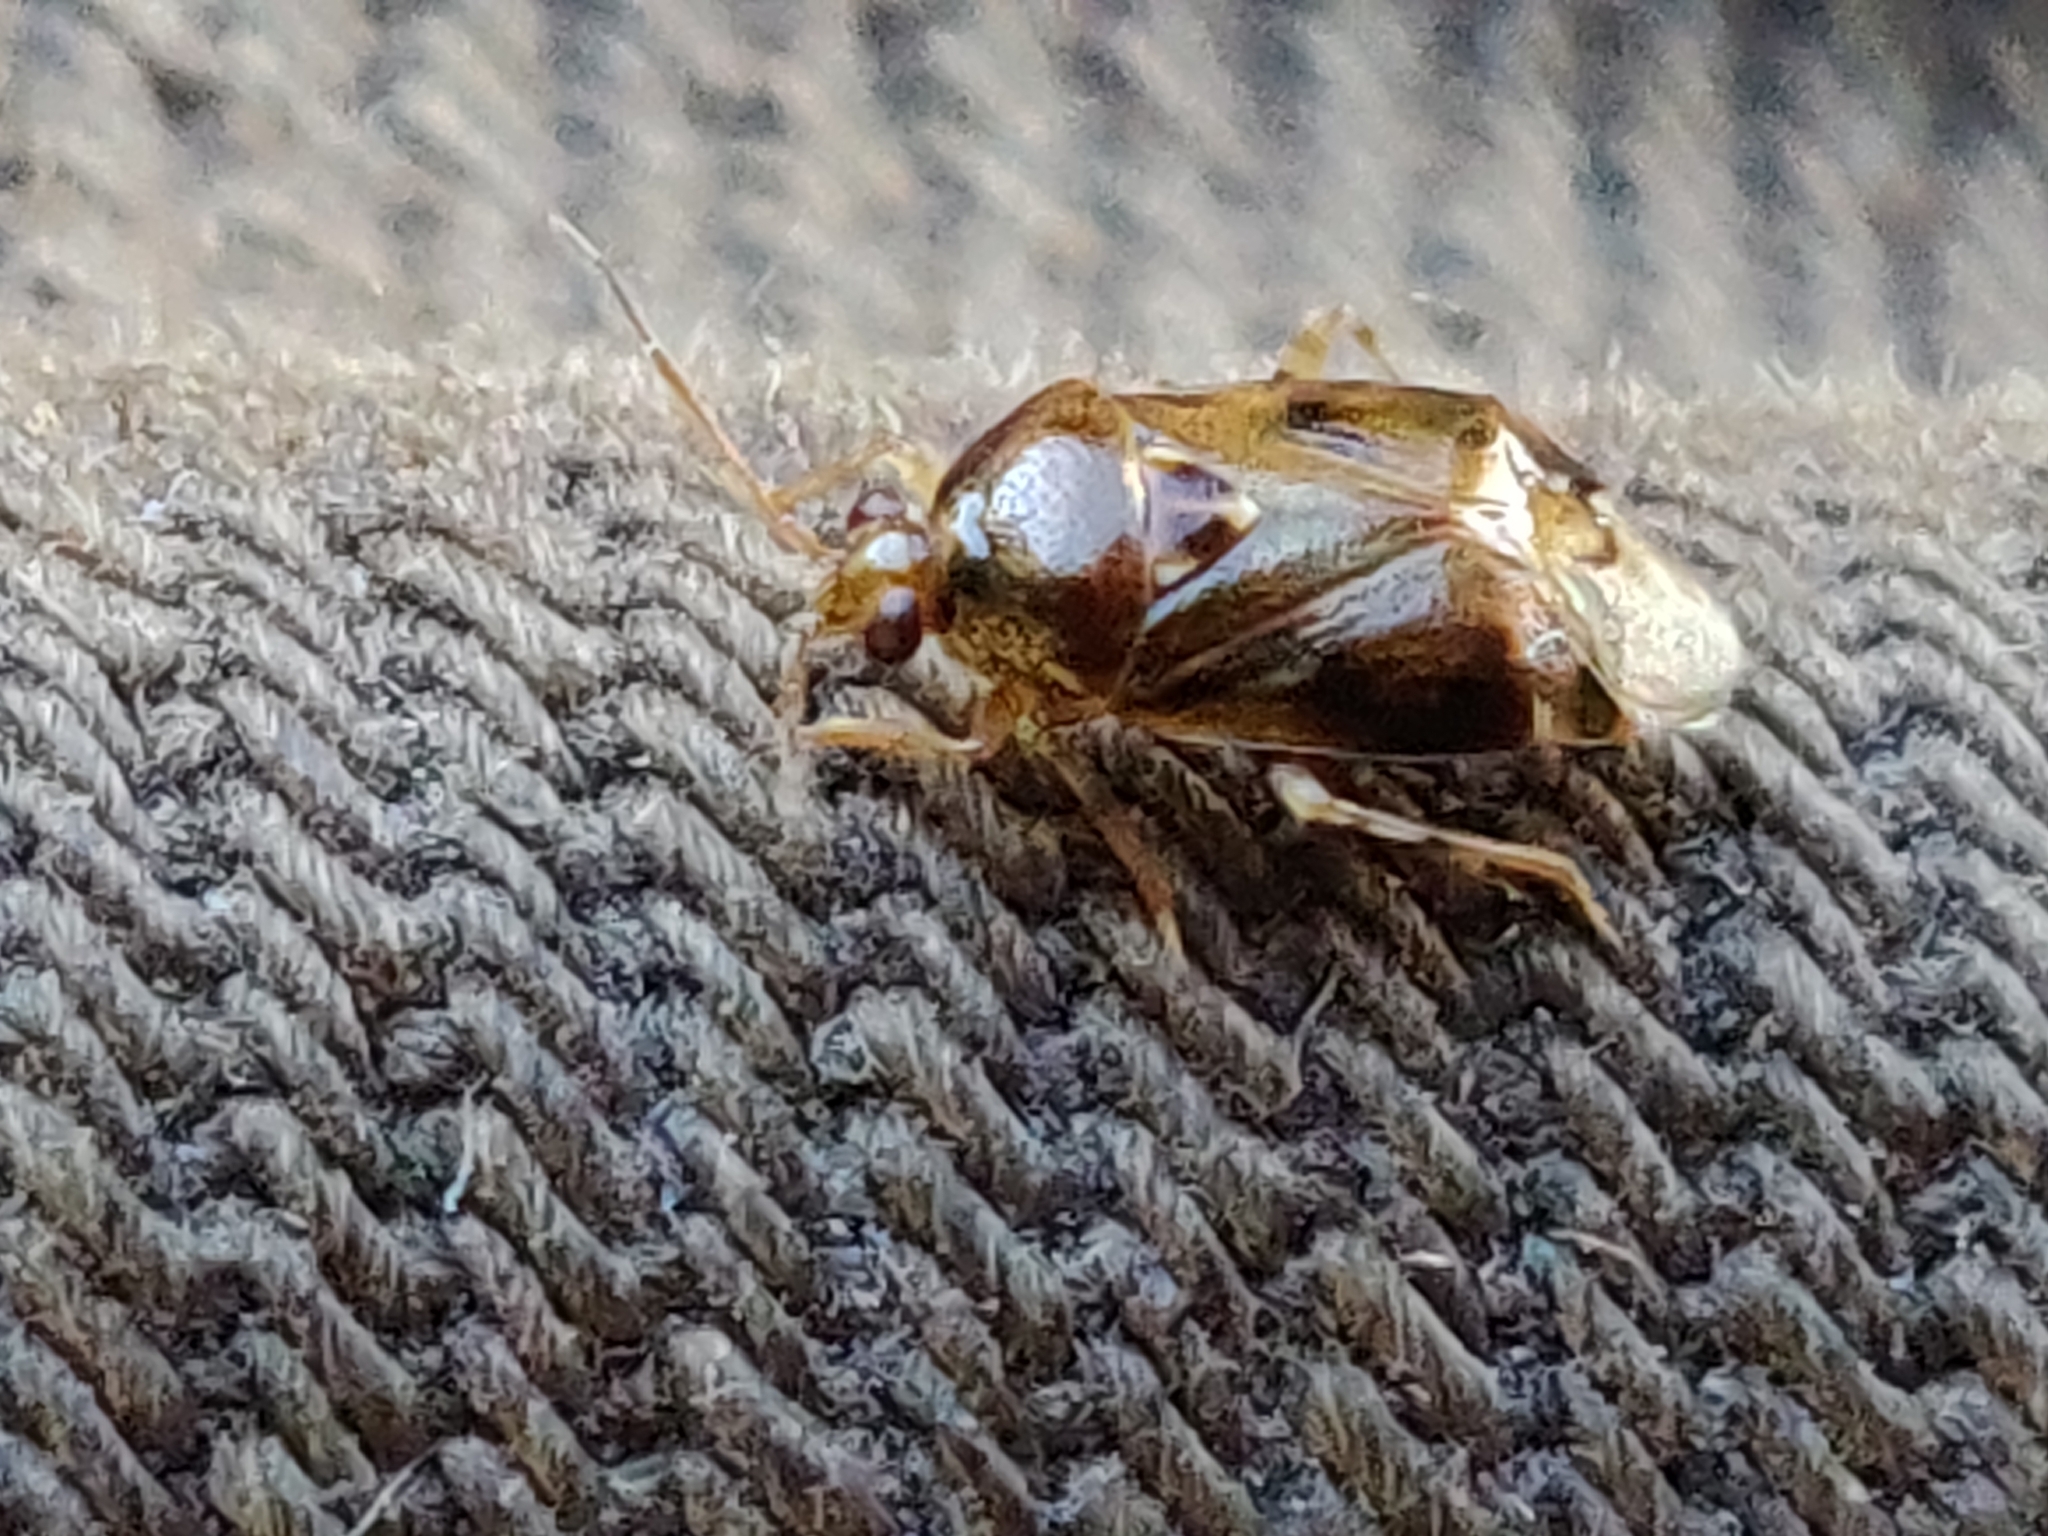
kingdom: Animalia
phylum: Arthropoda
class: Insecta
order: Hemiptera
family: Miridae
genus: Deraeocoris
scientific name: Deraeocoris lutescens
